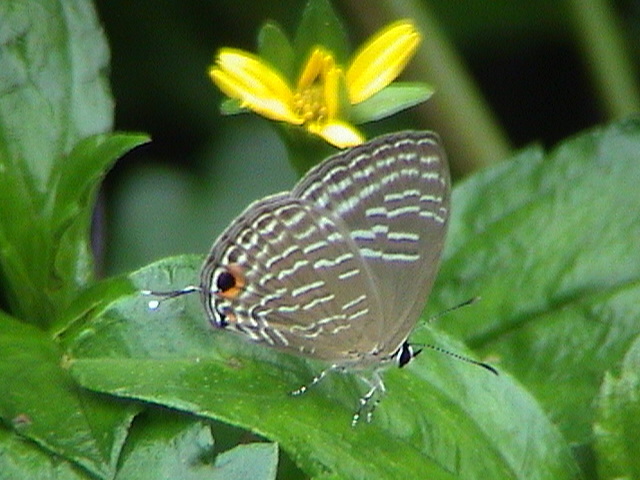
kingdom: Animalia
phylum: Arthropoda
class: Insecta
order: Lepidoptera
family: Lycaenidae
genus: Jamides
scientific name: Jamides alecto
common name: Metallic cerulean
